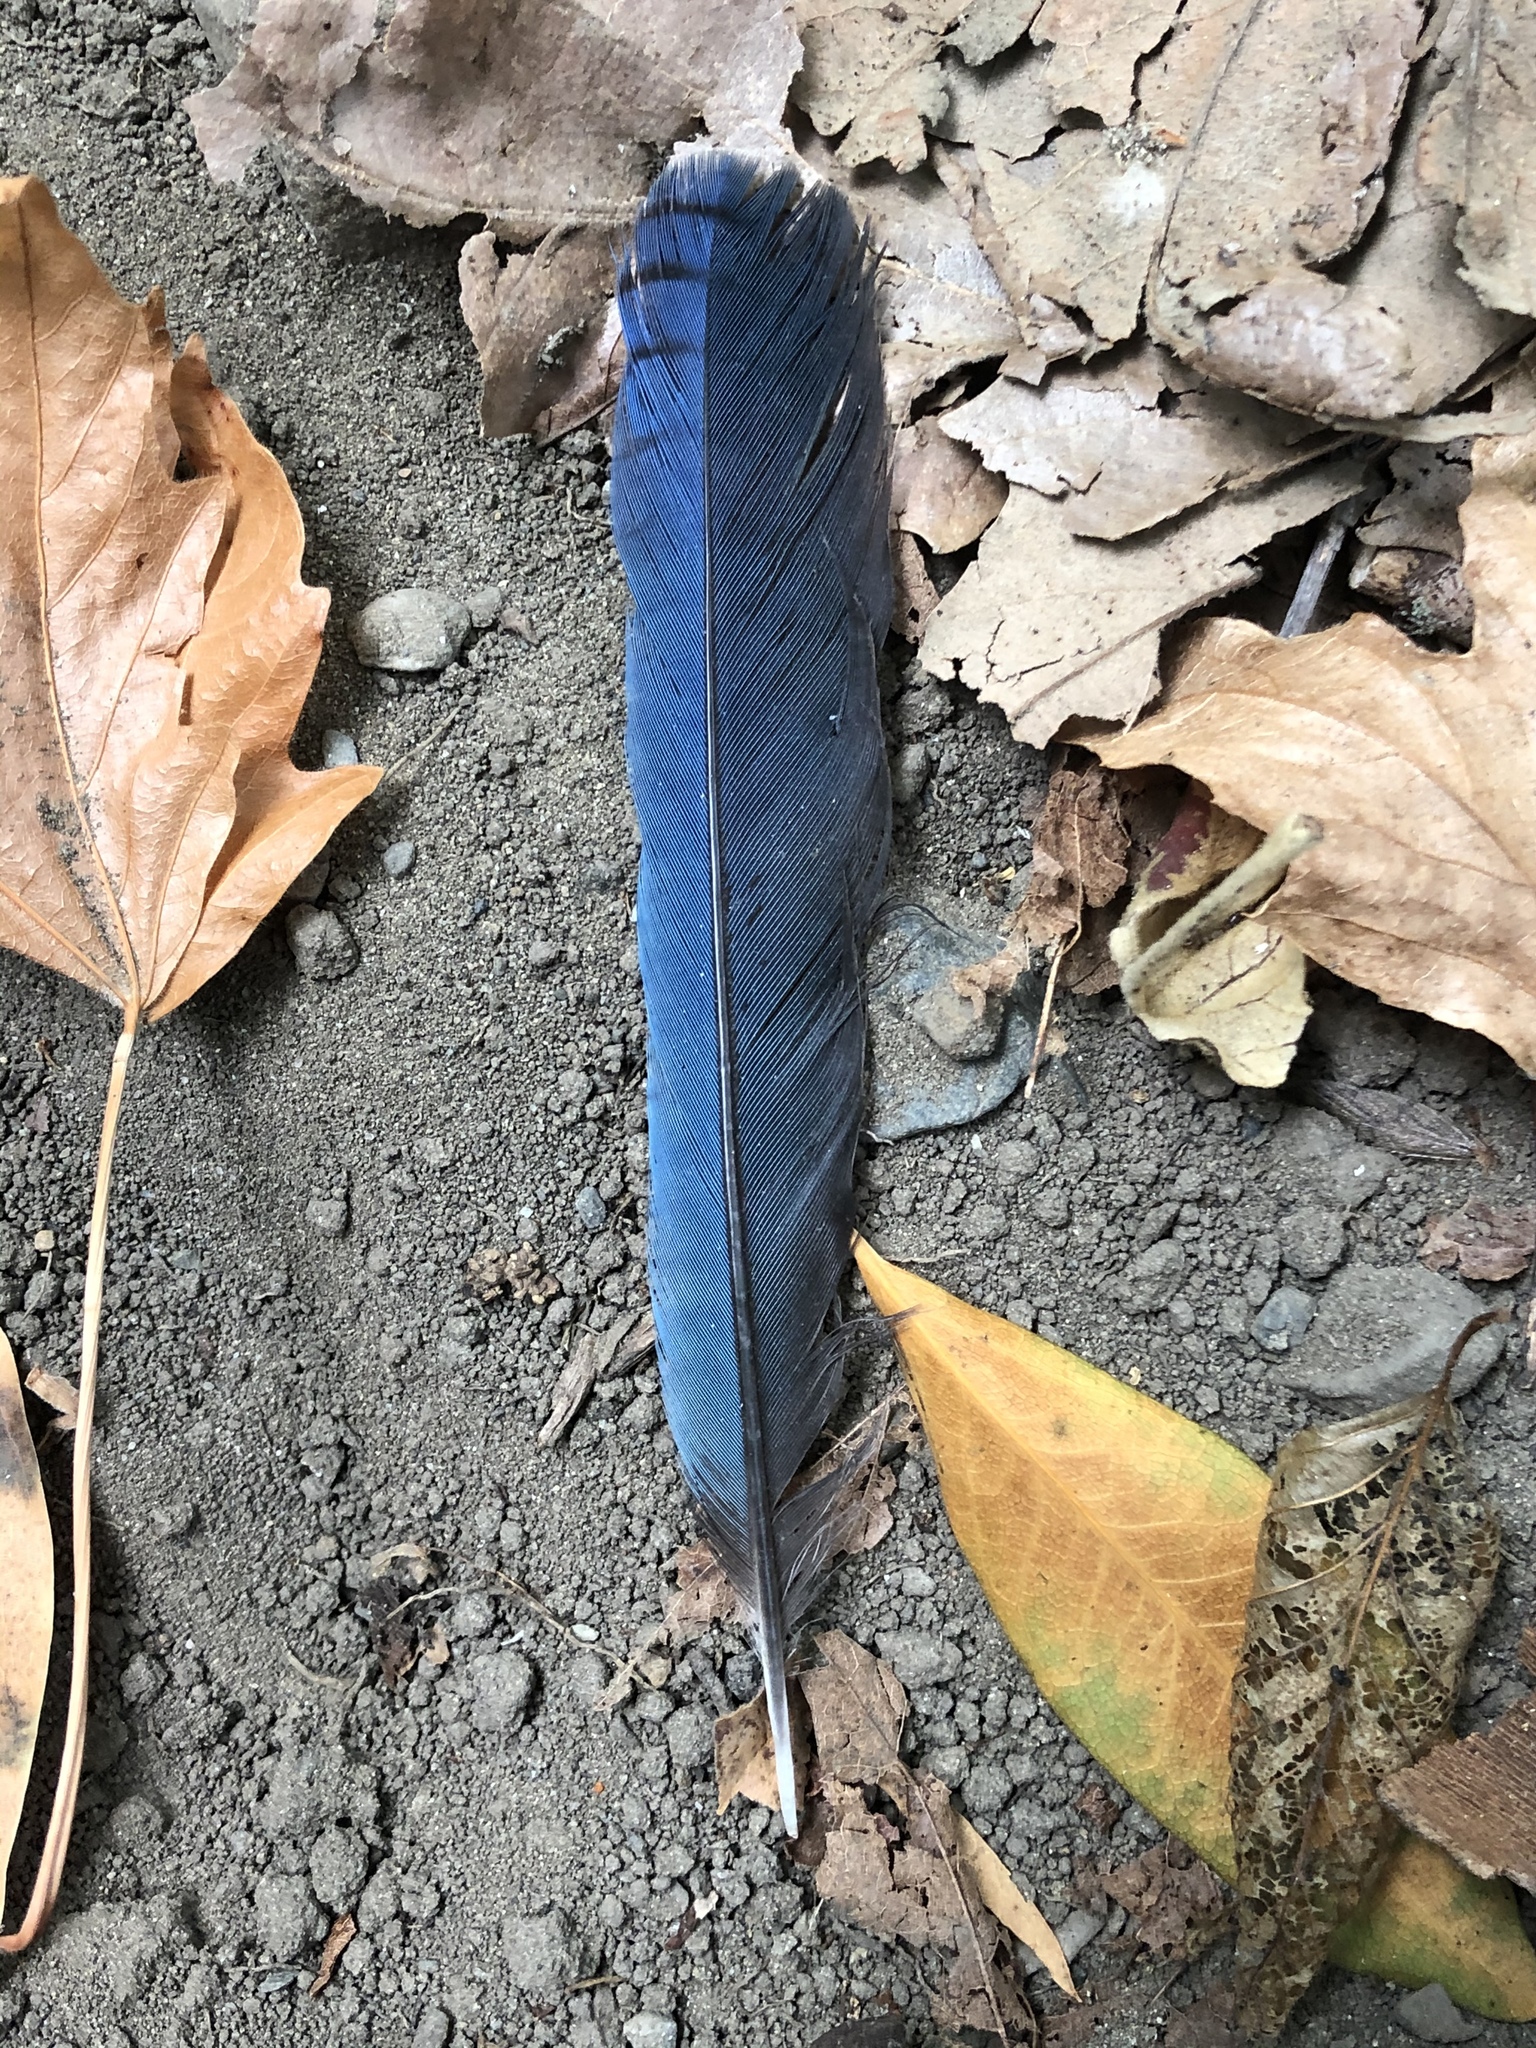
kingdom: Animalia
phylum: Chordata
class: Aves
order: Passeriformes
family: Corvidae
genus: Cyanocitta
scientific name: Cyanocitta stelleri
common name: Steller's jay
